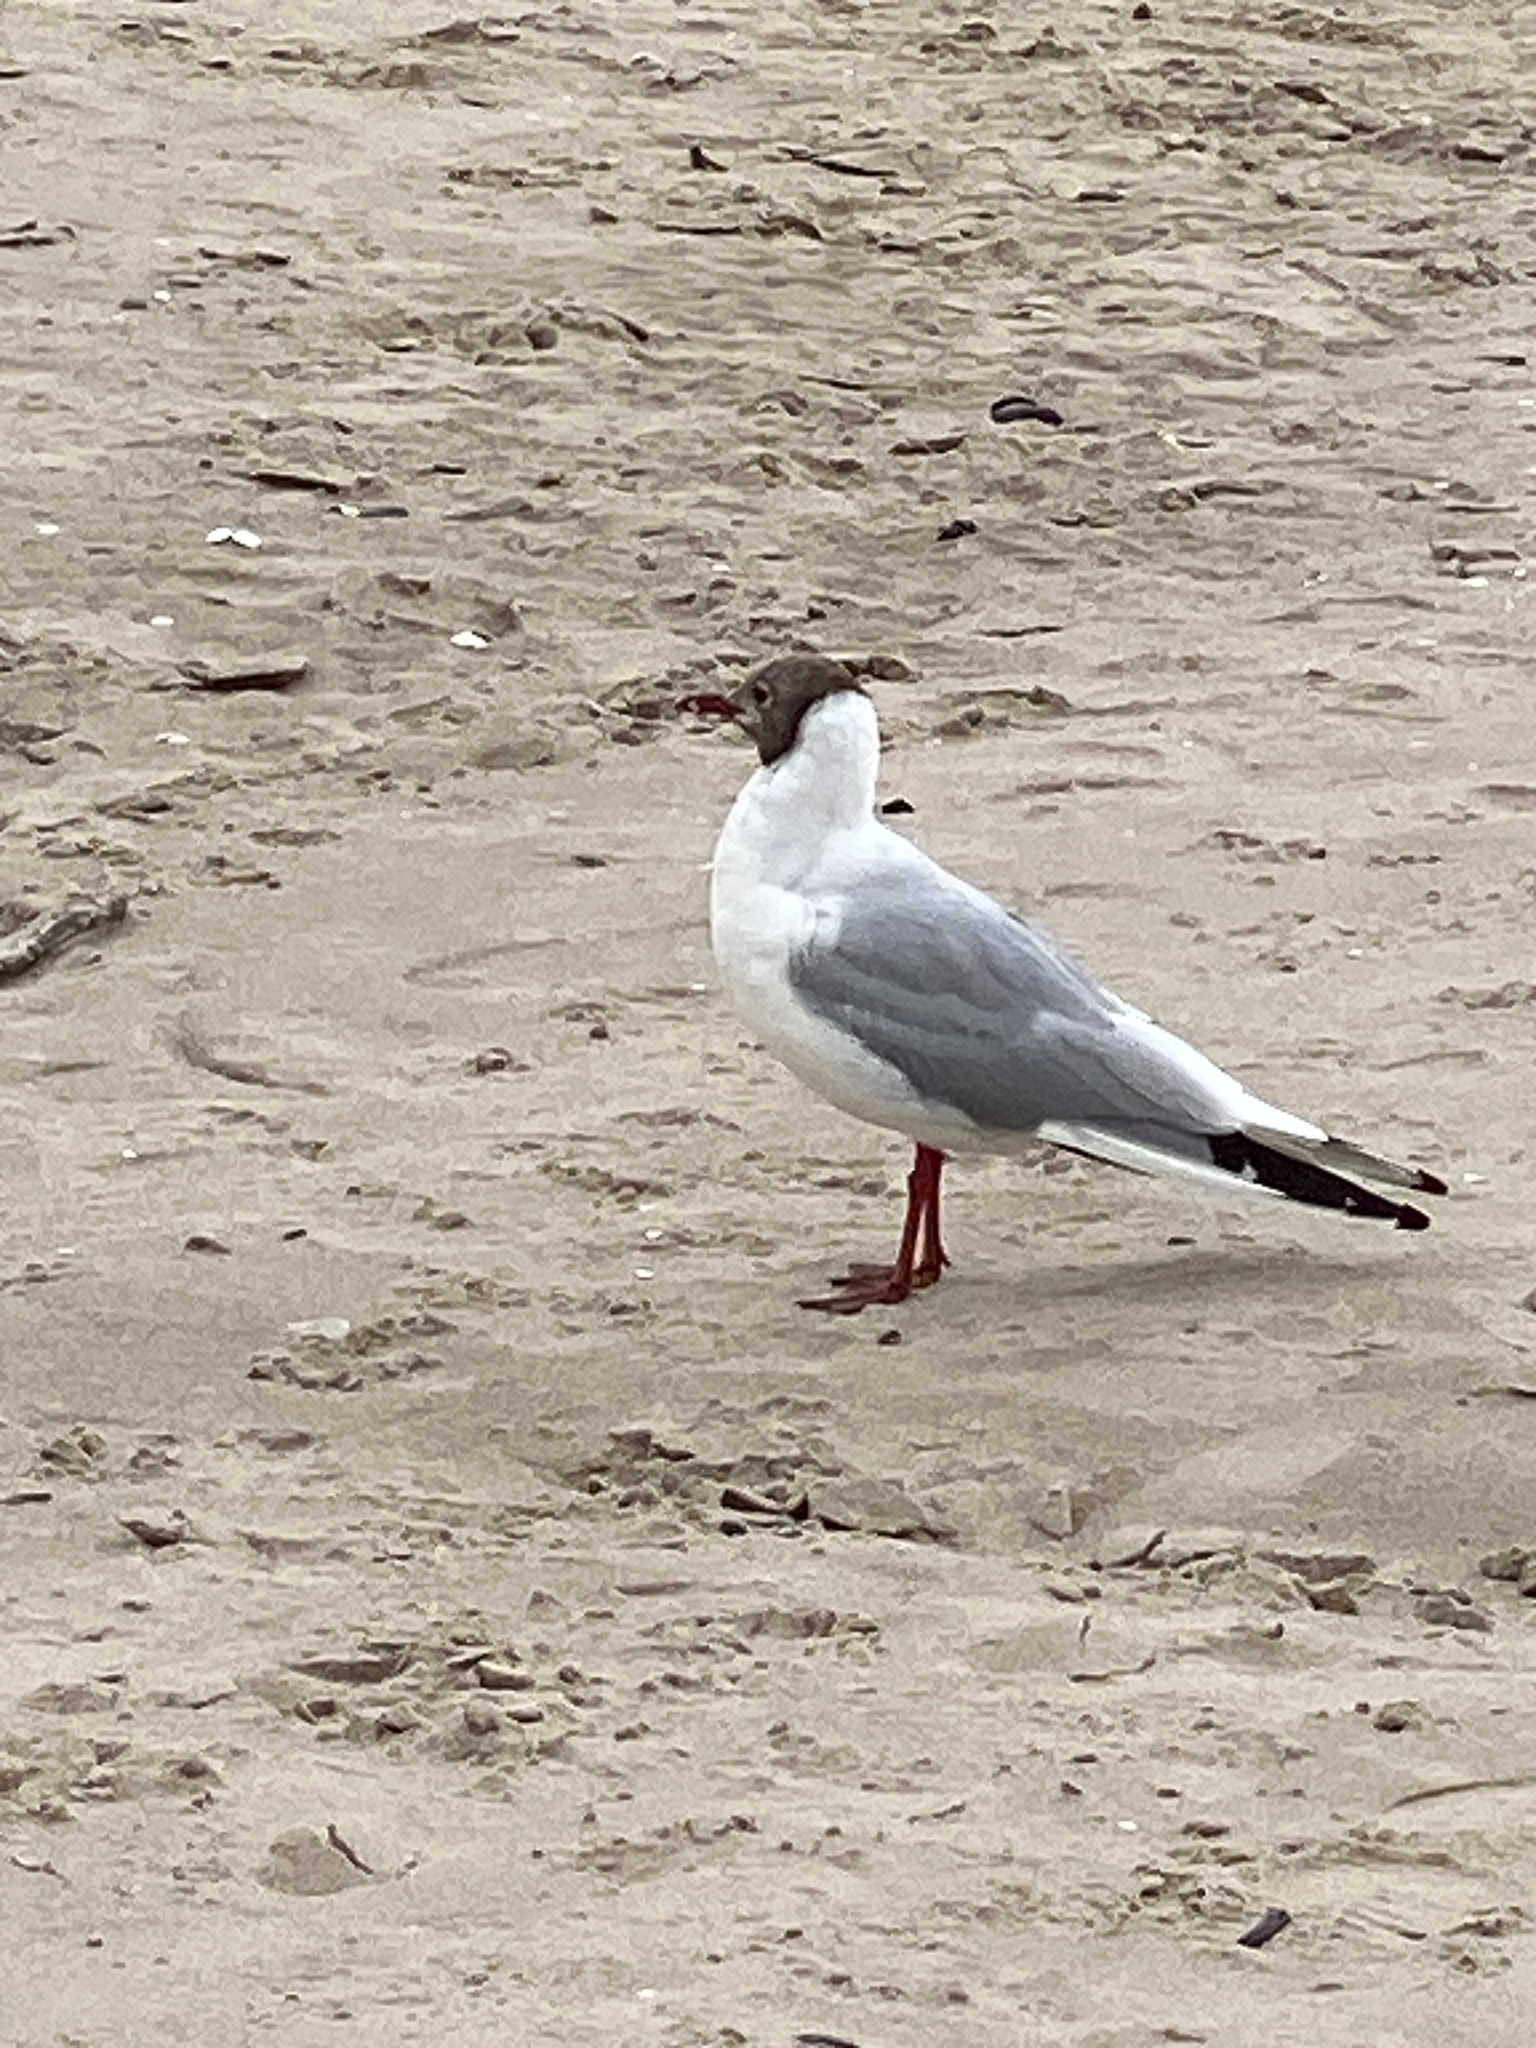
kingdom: Animalia
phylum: Chordata
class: Aves
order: Charadriiformes
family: Laridae
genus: Chroicocephalus
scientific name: Chroicocephalus ridibundus
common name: Black-headed gull
